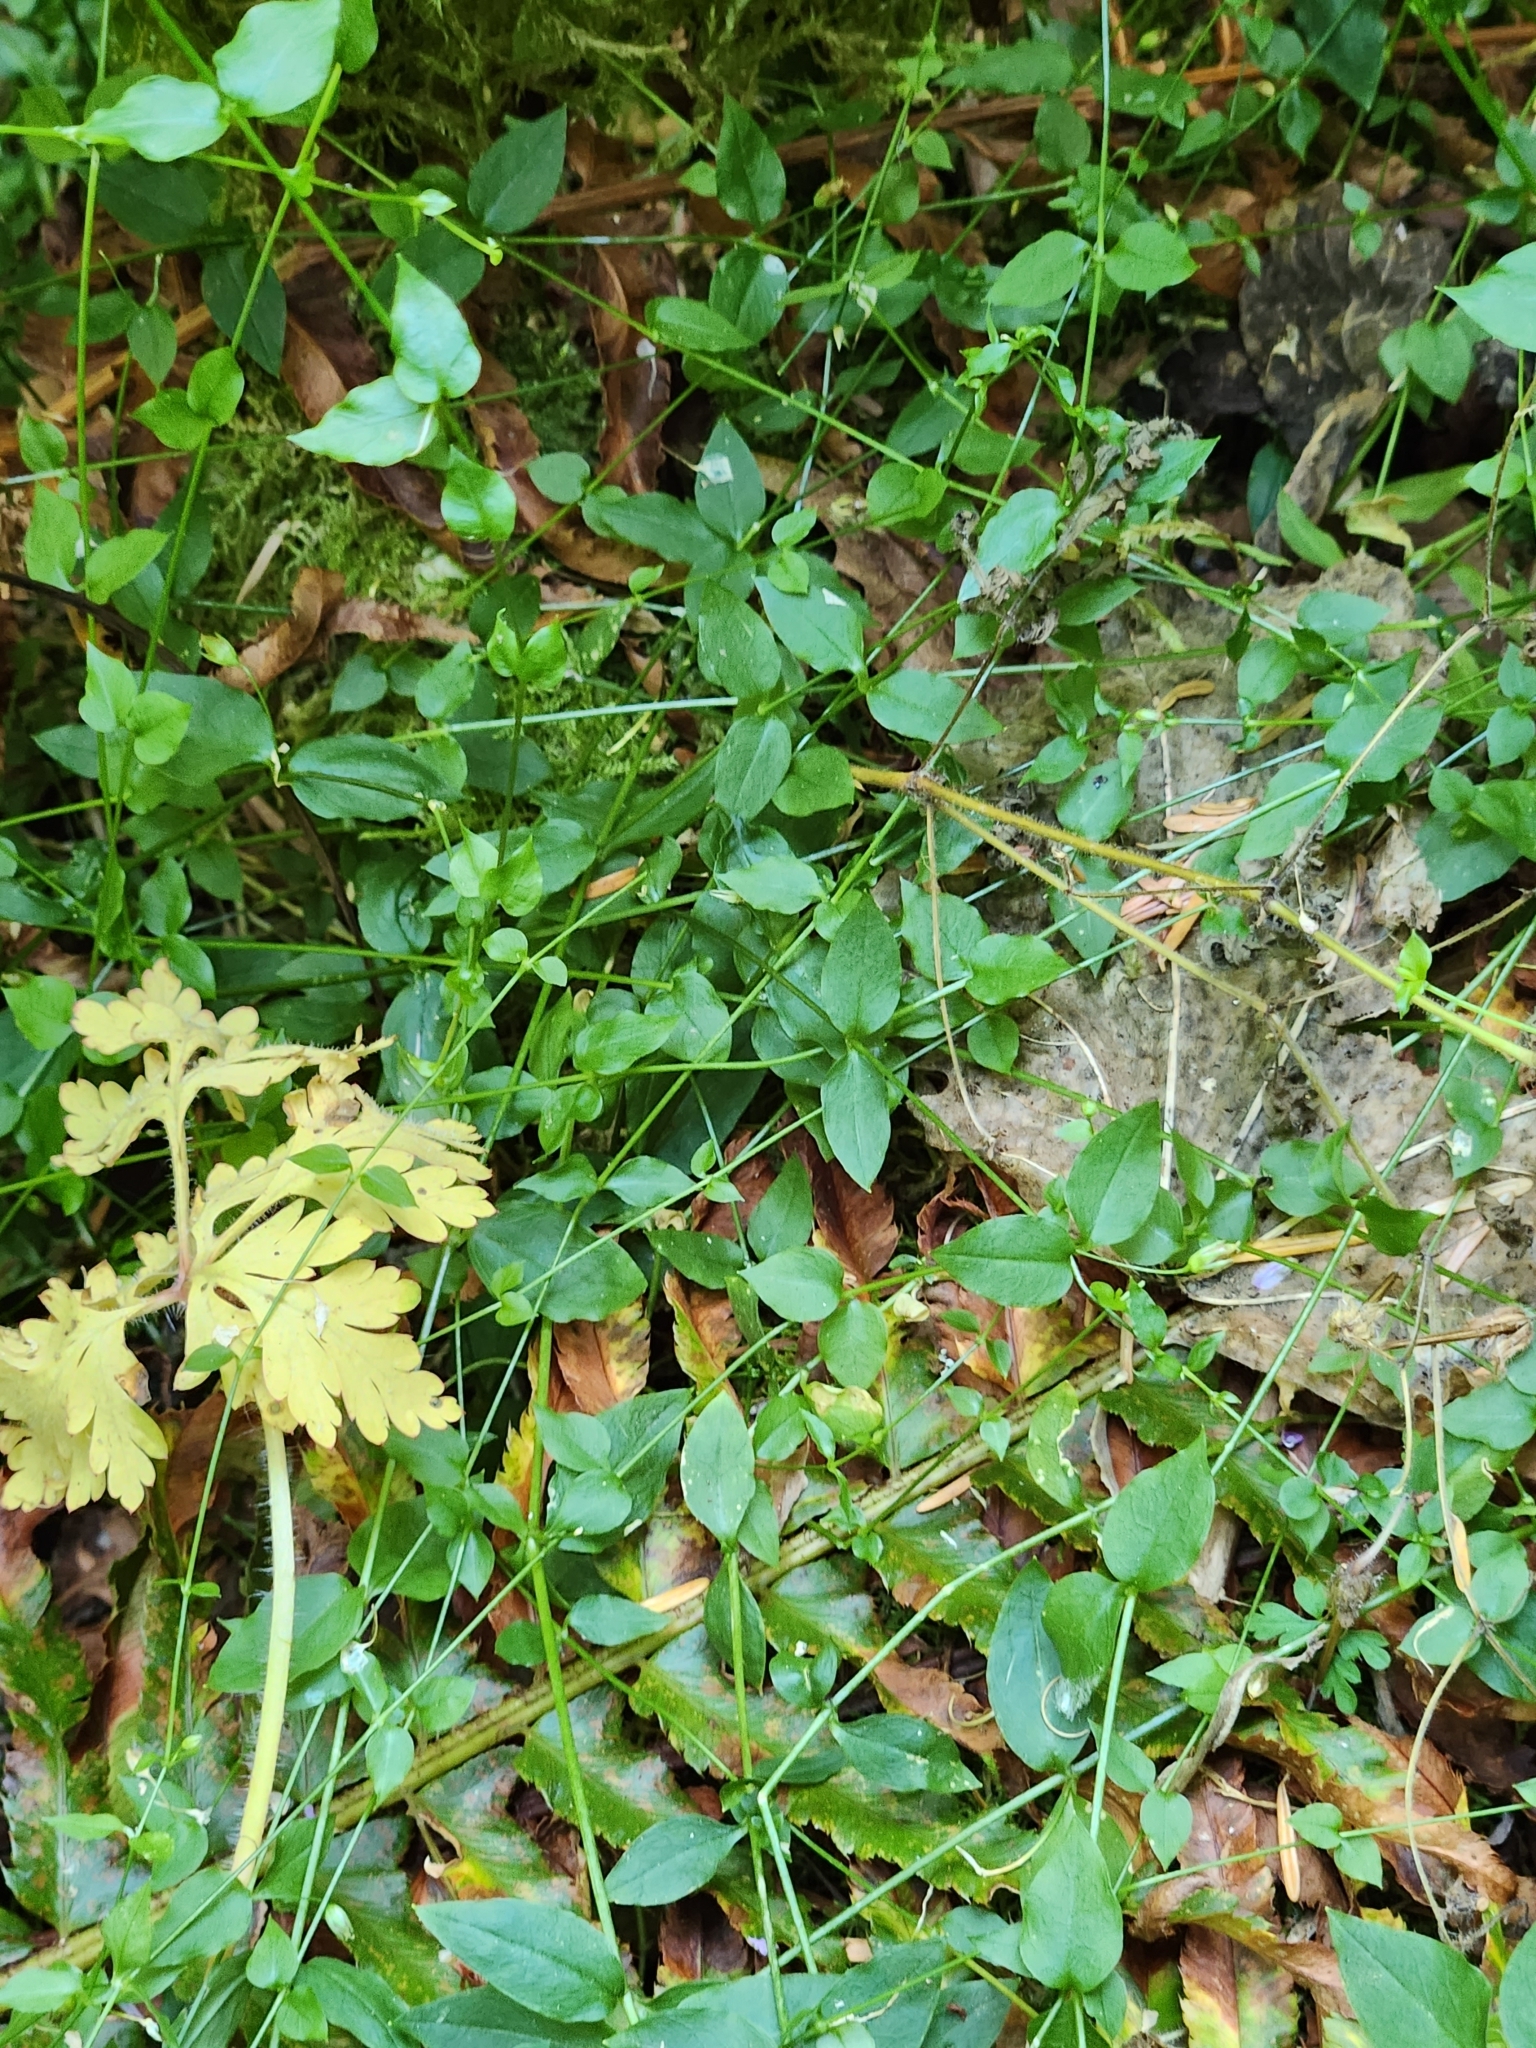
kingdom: Plantae
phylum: Tracheophyta
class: Magnoliopsida
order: Caryophyllales
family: Caryophyllaceae
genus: Stellaria
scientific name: Stellaria crispa
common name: Crimped stitchwort
